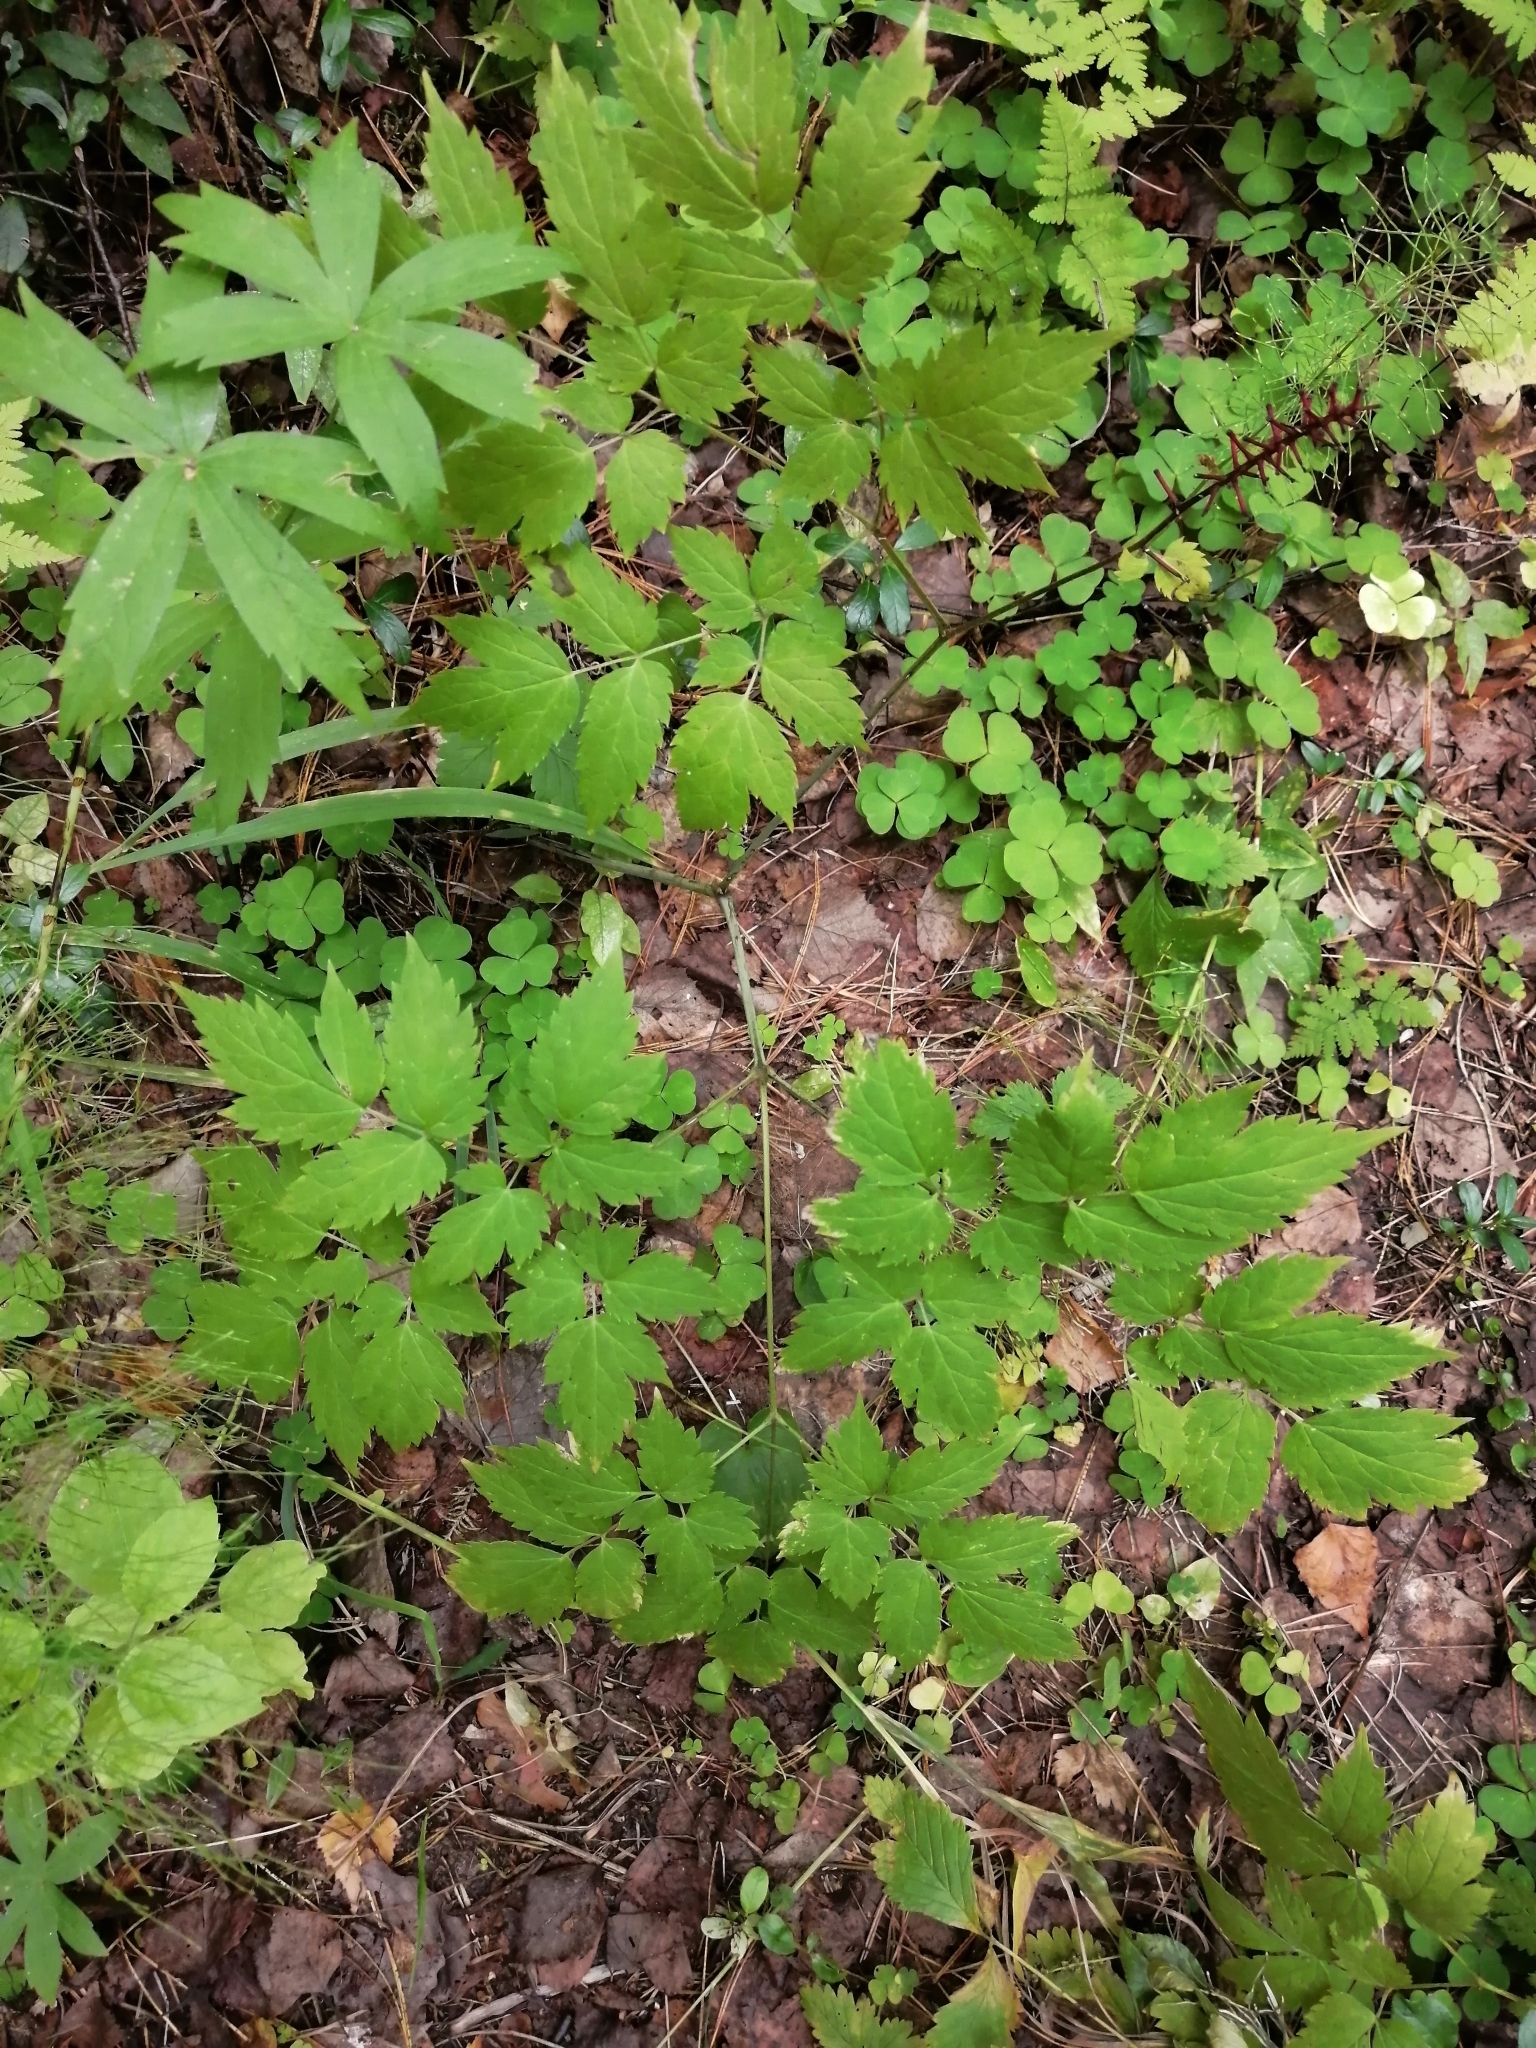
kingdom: Plantae
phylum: Tracheophyta
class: Magnoliopsida
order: Ranunculales
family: Ranunculaceae
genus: Actaea
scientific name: Actaea erythrocarpa
